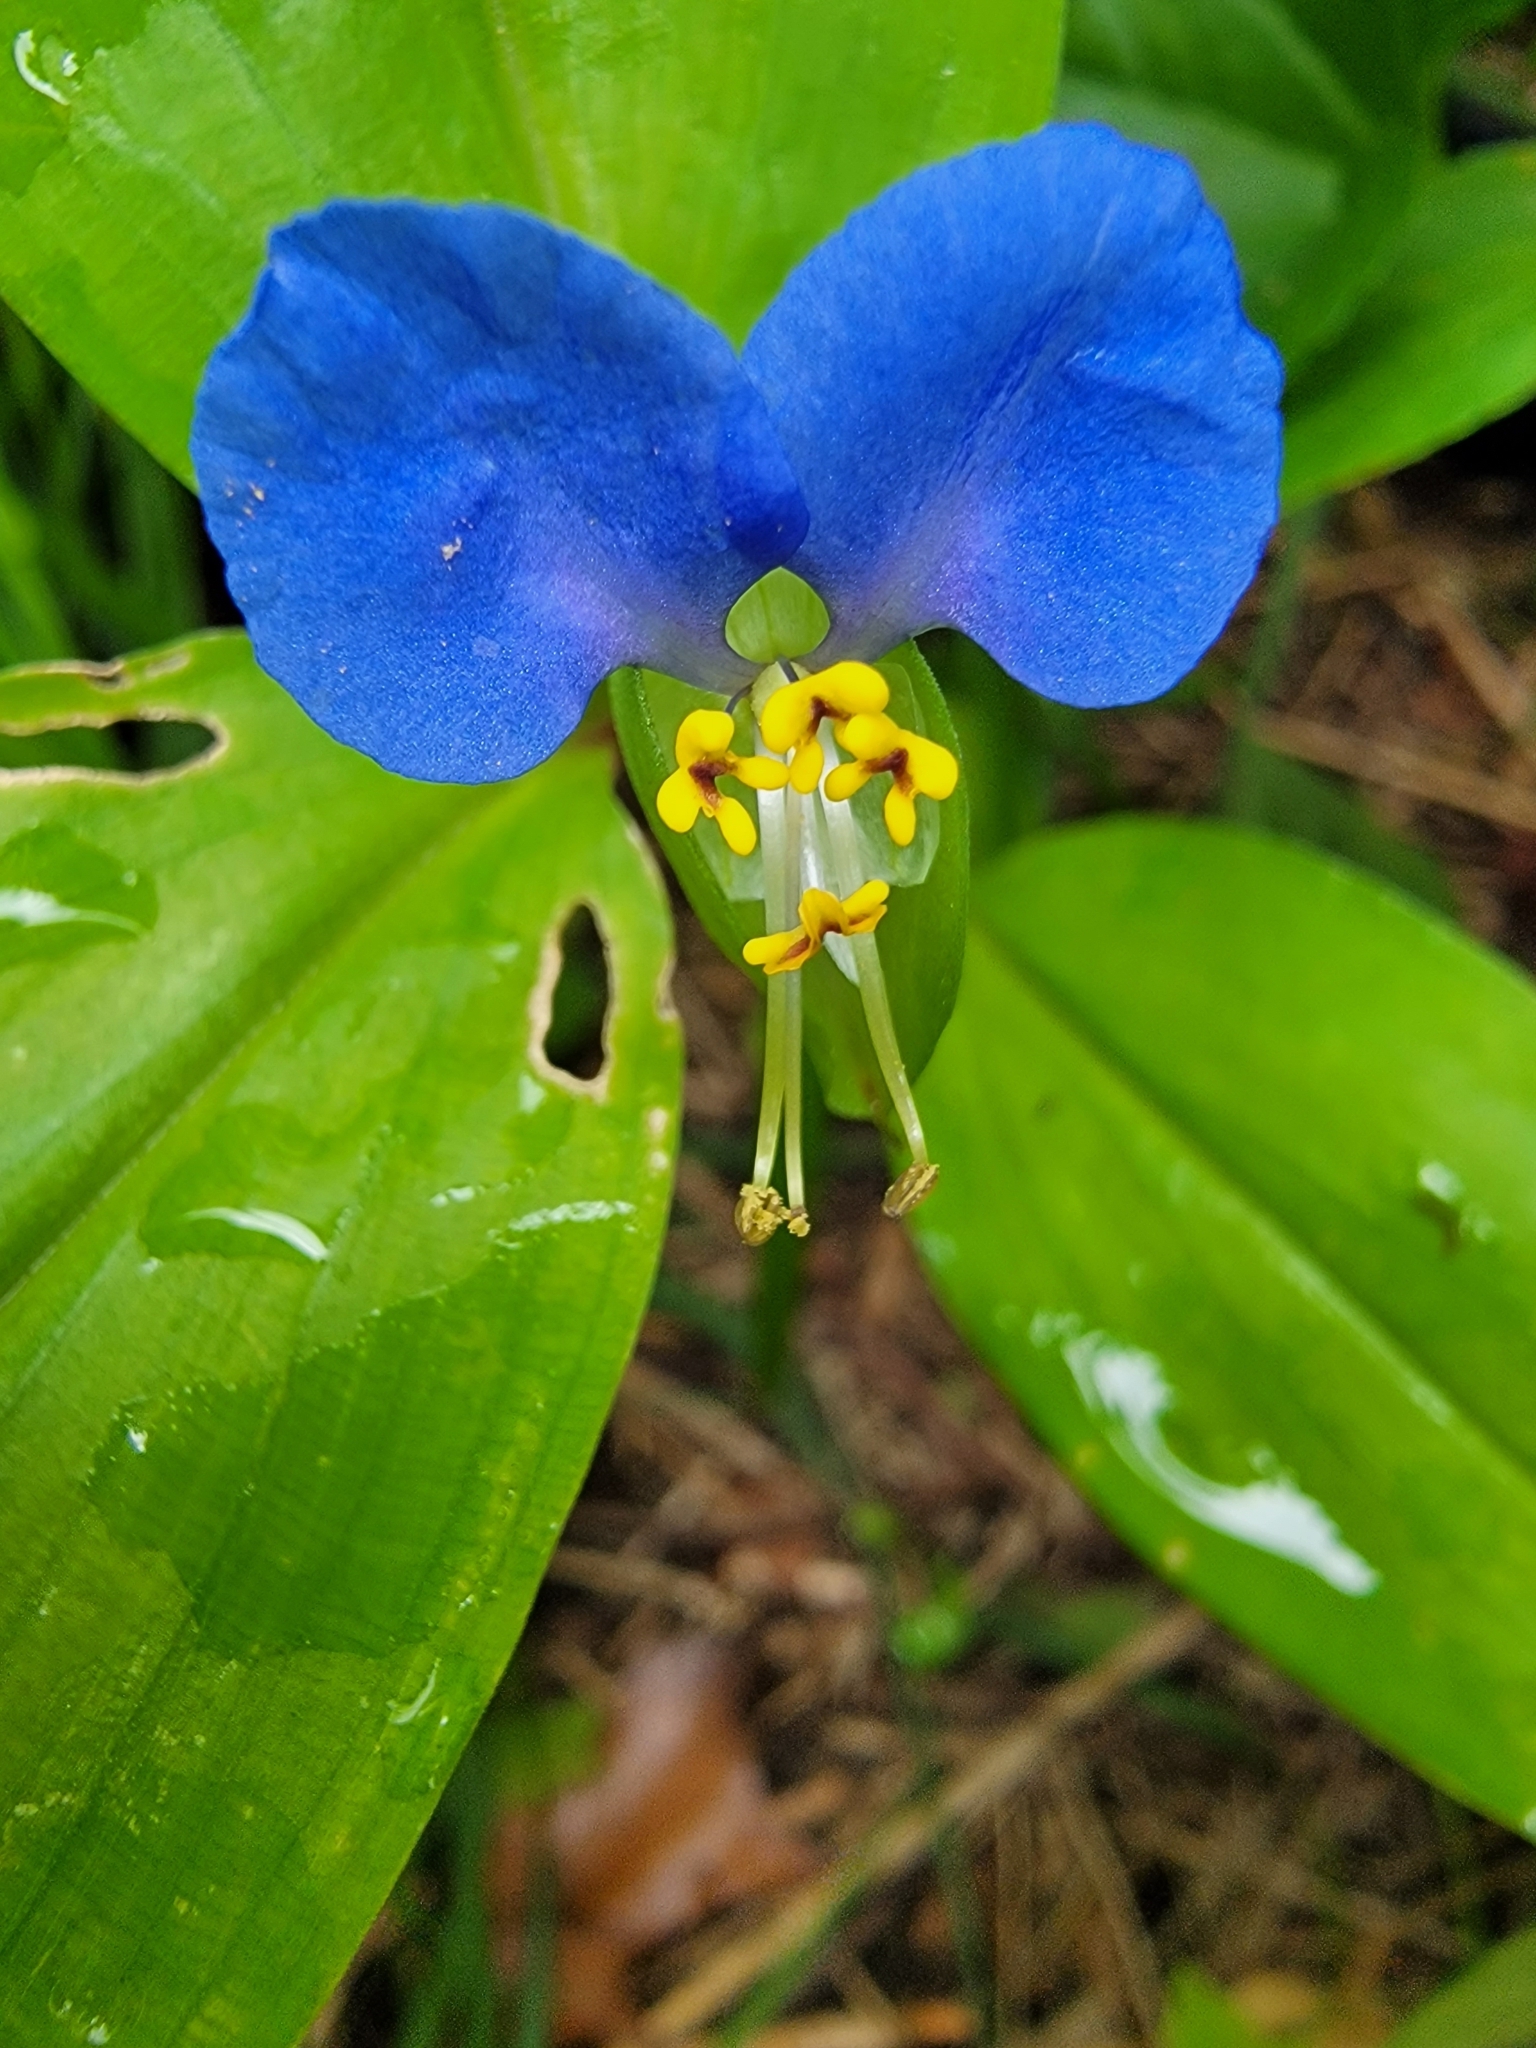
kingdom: Plantae
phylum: Tracheophyta
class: Liliopsida
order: Commelinales
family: Commelinaceae
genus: Commelina
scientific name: Commelina communis
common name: Asiatic dayflower
